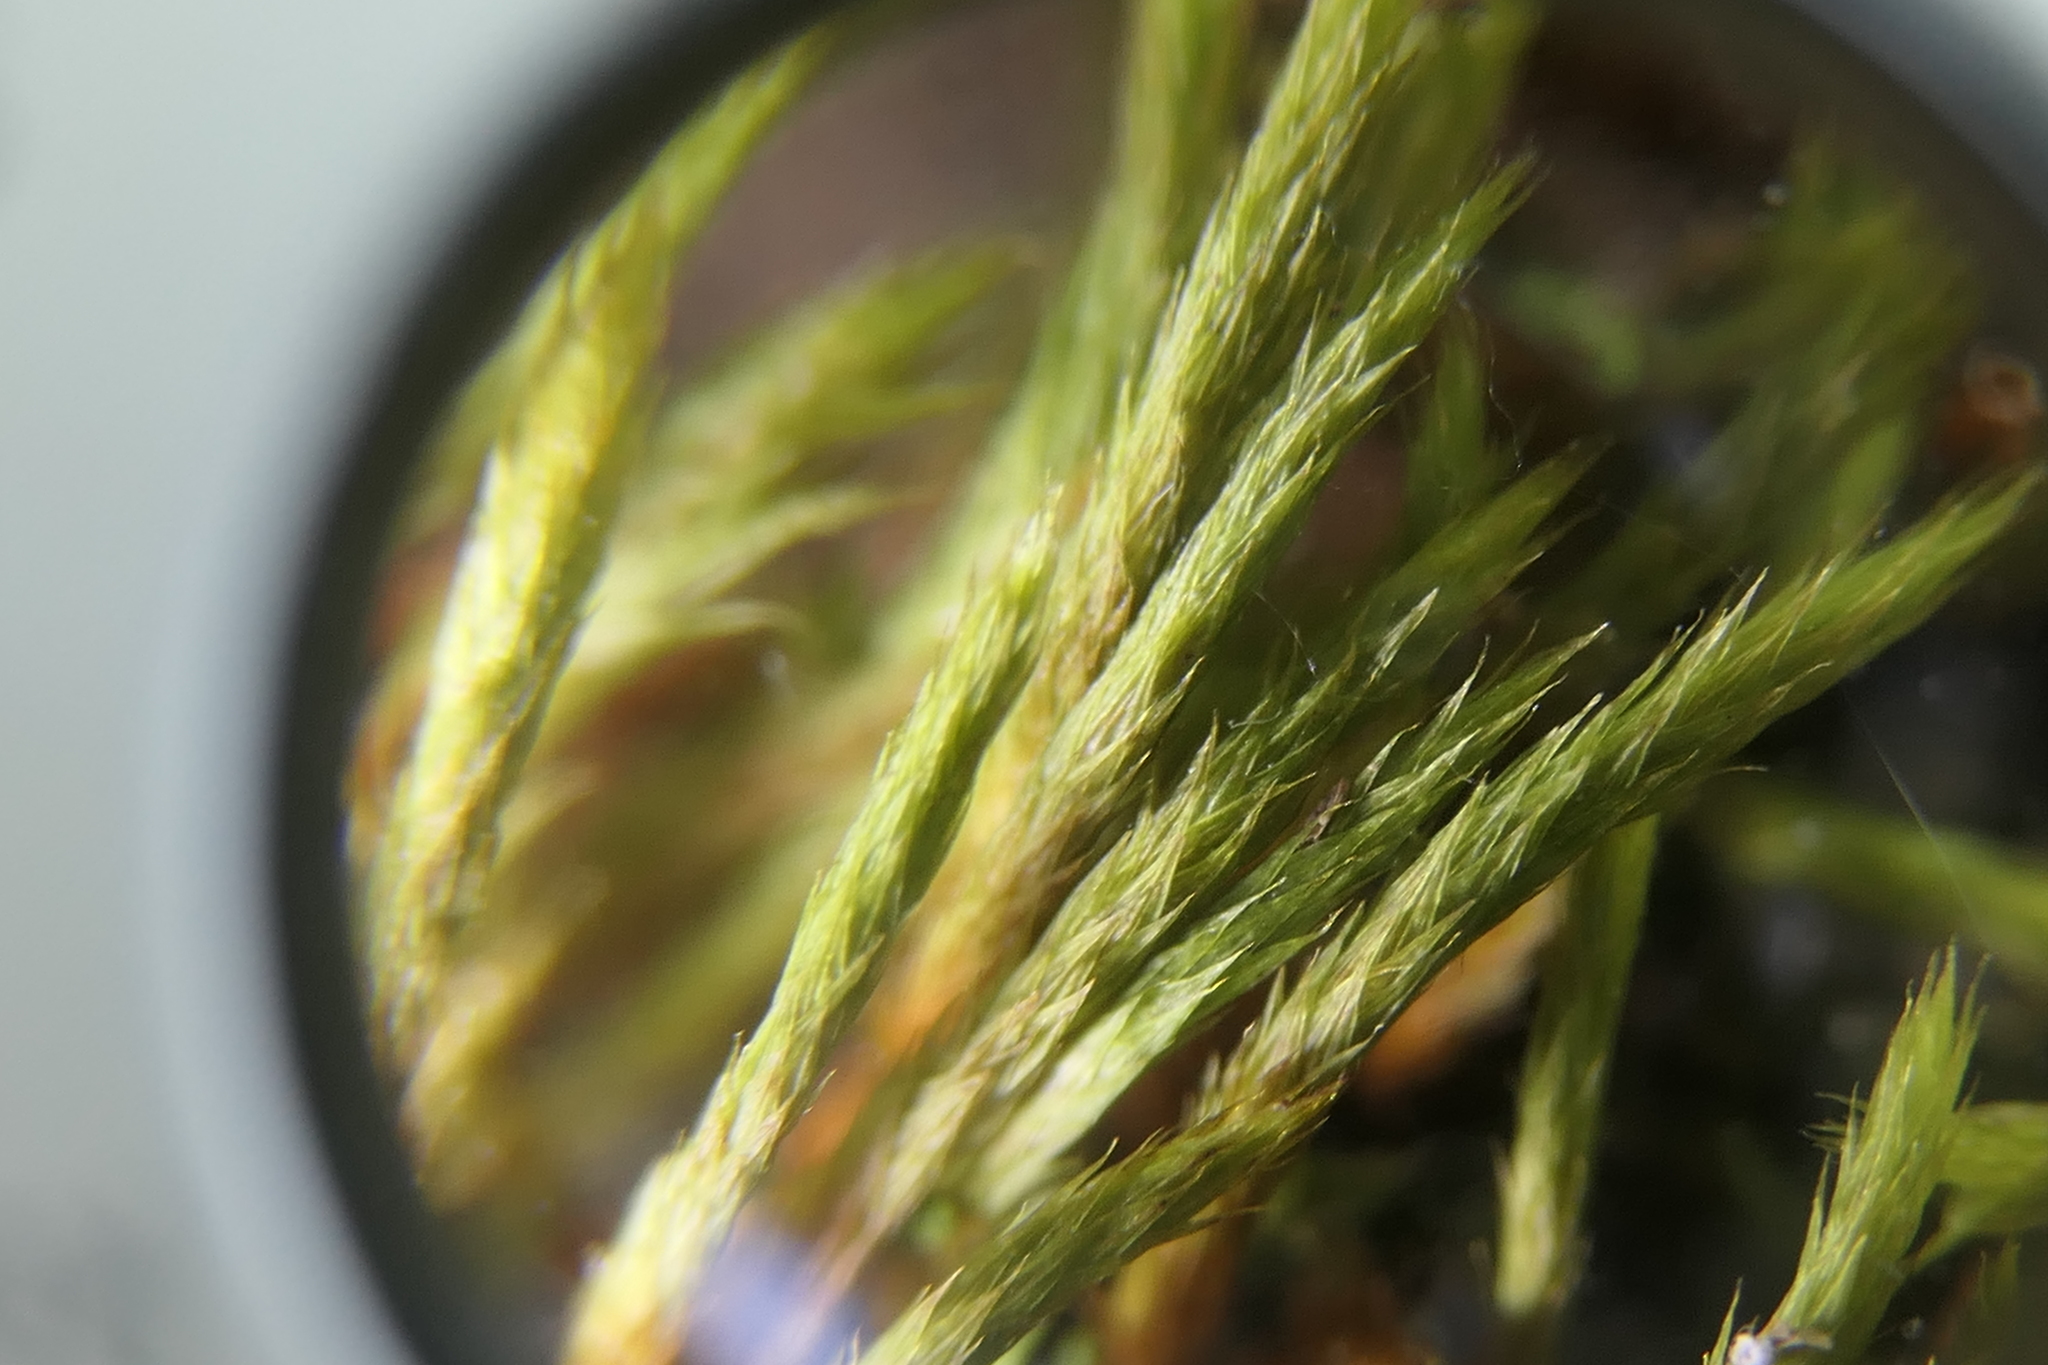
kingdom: Plantae
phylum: Bryophyta
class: Bryopsida
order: Hypnales
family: Leucodontaceae
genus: Leucodon
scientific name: Leucodon sciuroides
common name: Squirrel-tail moss
